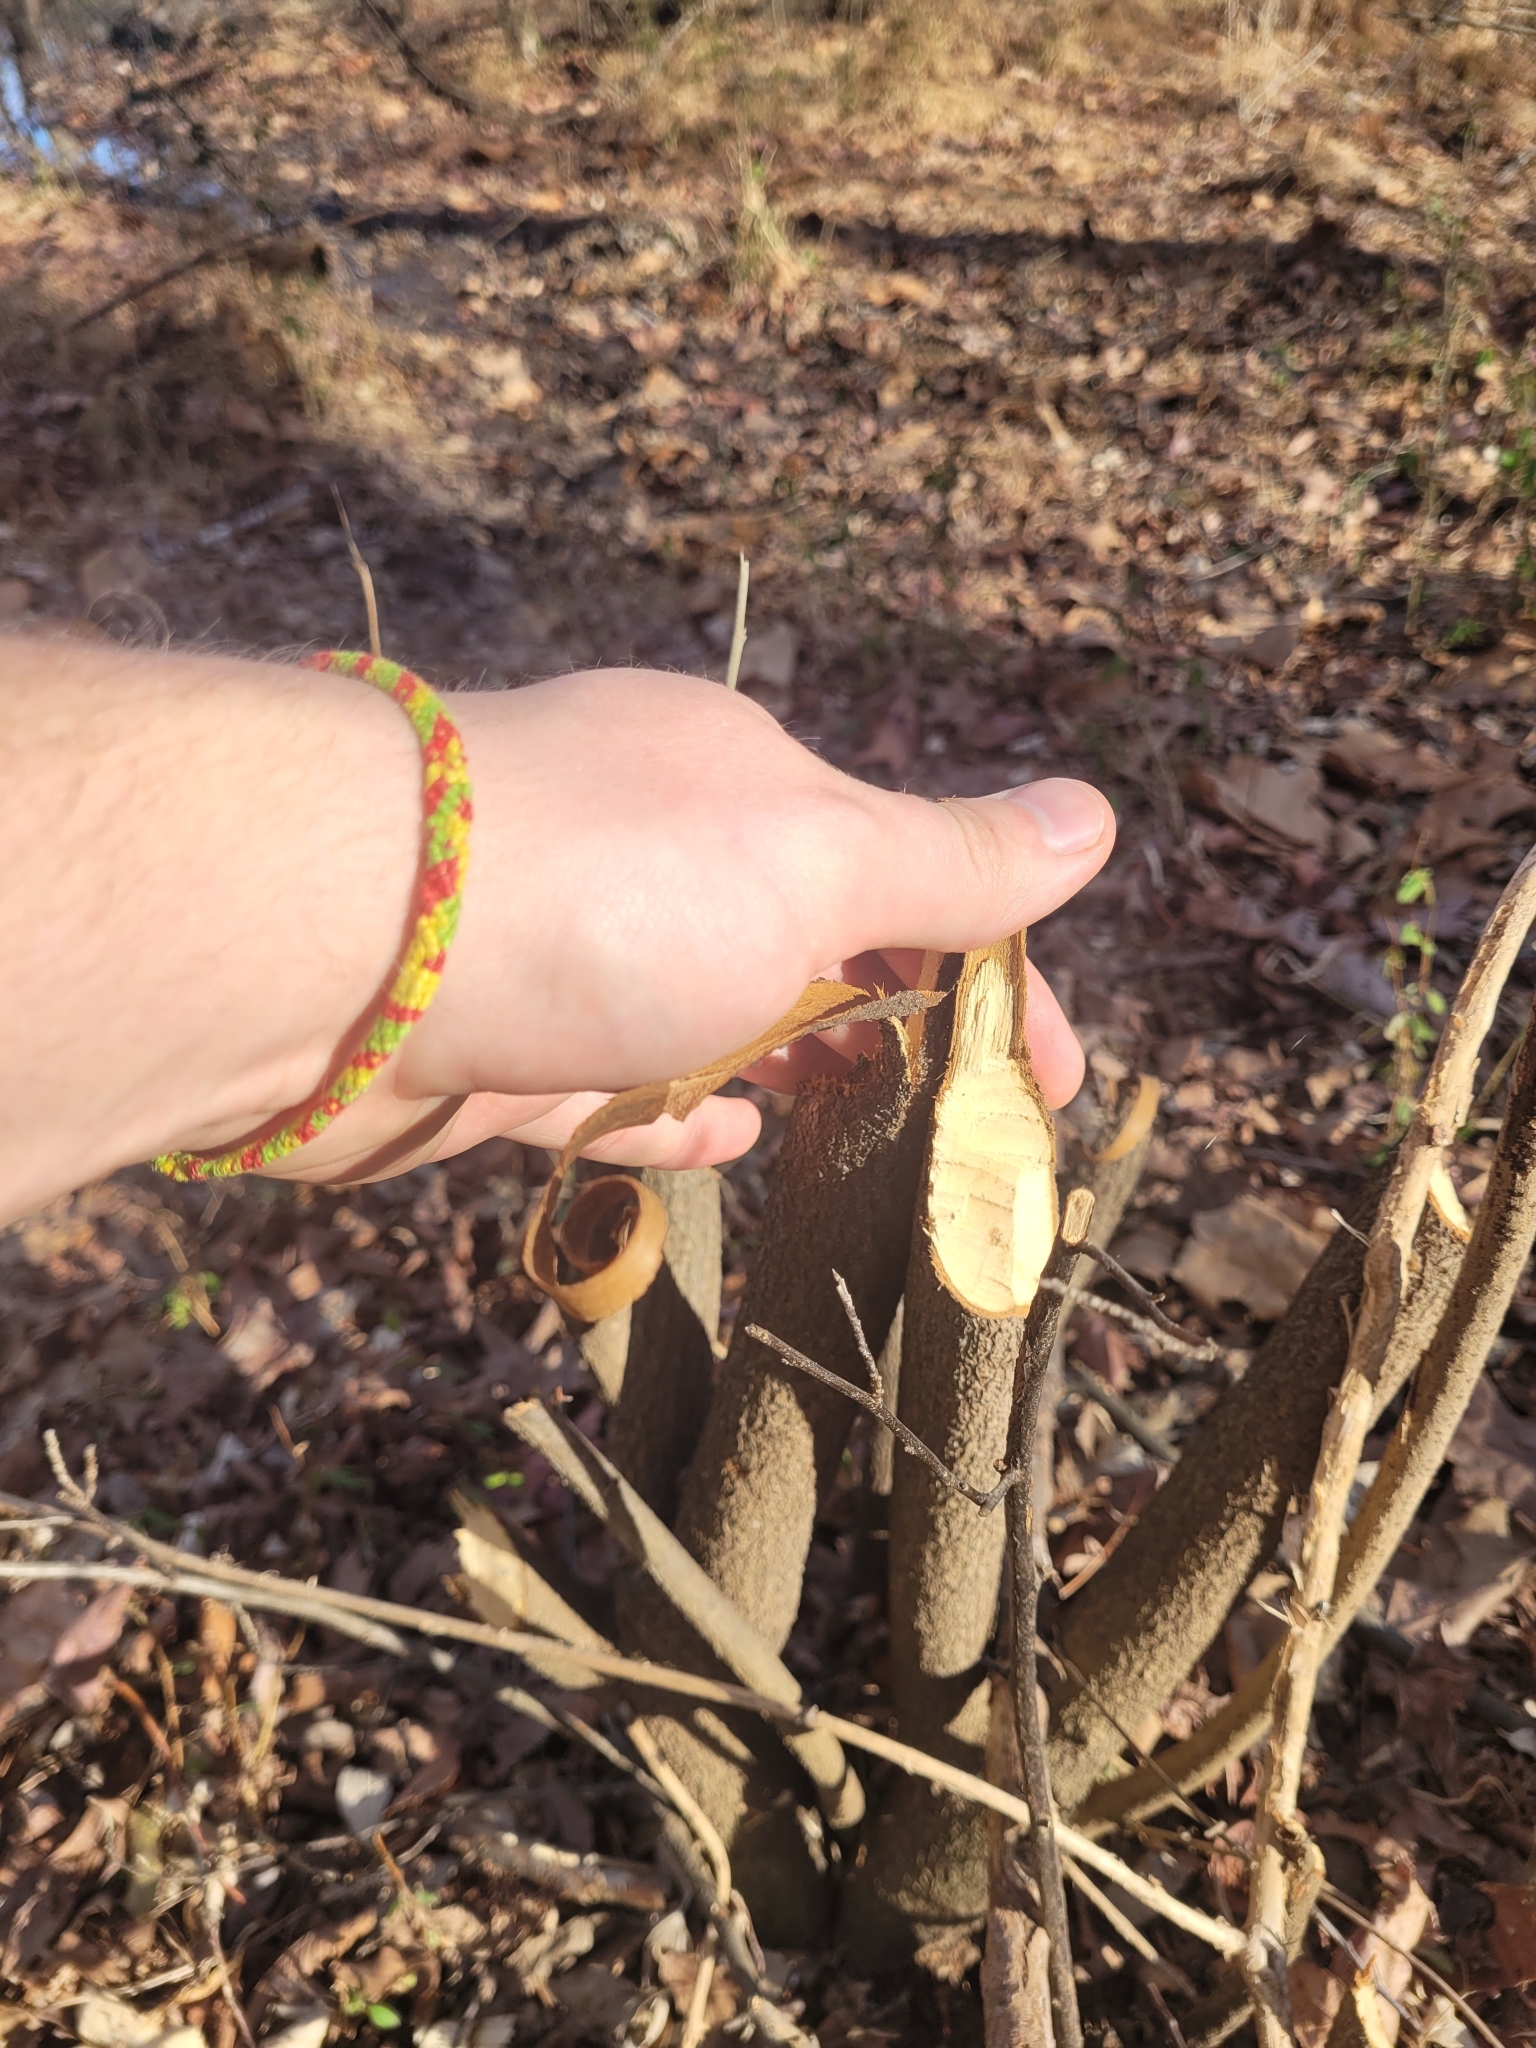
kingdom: Animalia
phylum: Chordata
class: Mammalia
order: Rodentia
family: Castoridae
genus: Castor
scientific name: Castor canadensis
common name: American beaver
